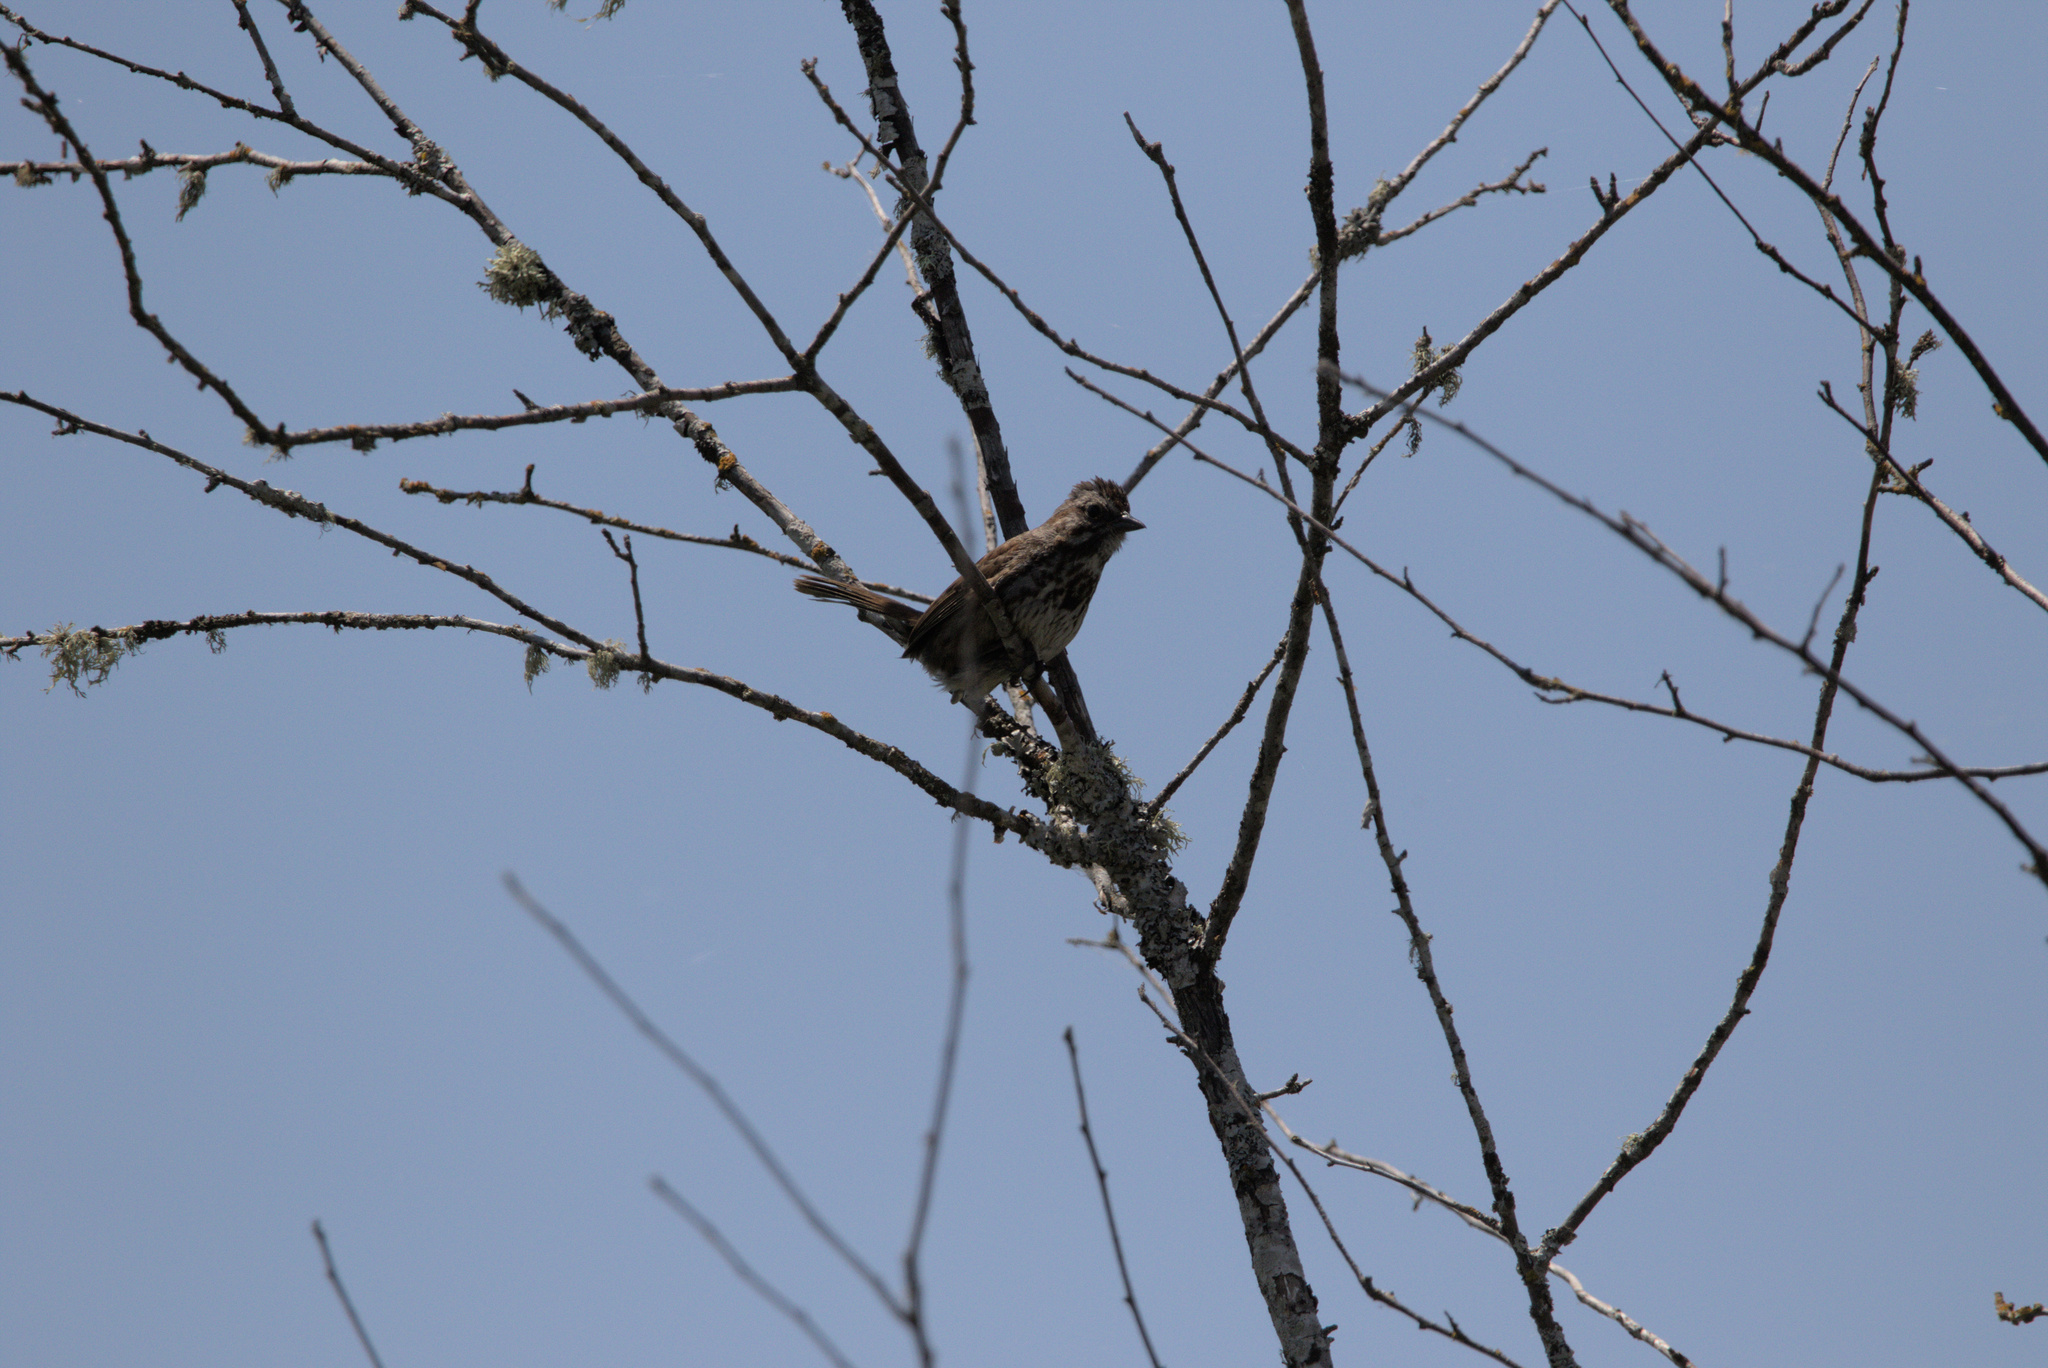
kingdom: Animalia
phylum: Chordata
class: Aves
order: Passeriformes
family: Passerellidae
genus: Melospiza
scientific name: Melospiza melodia
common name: Song sparrow
